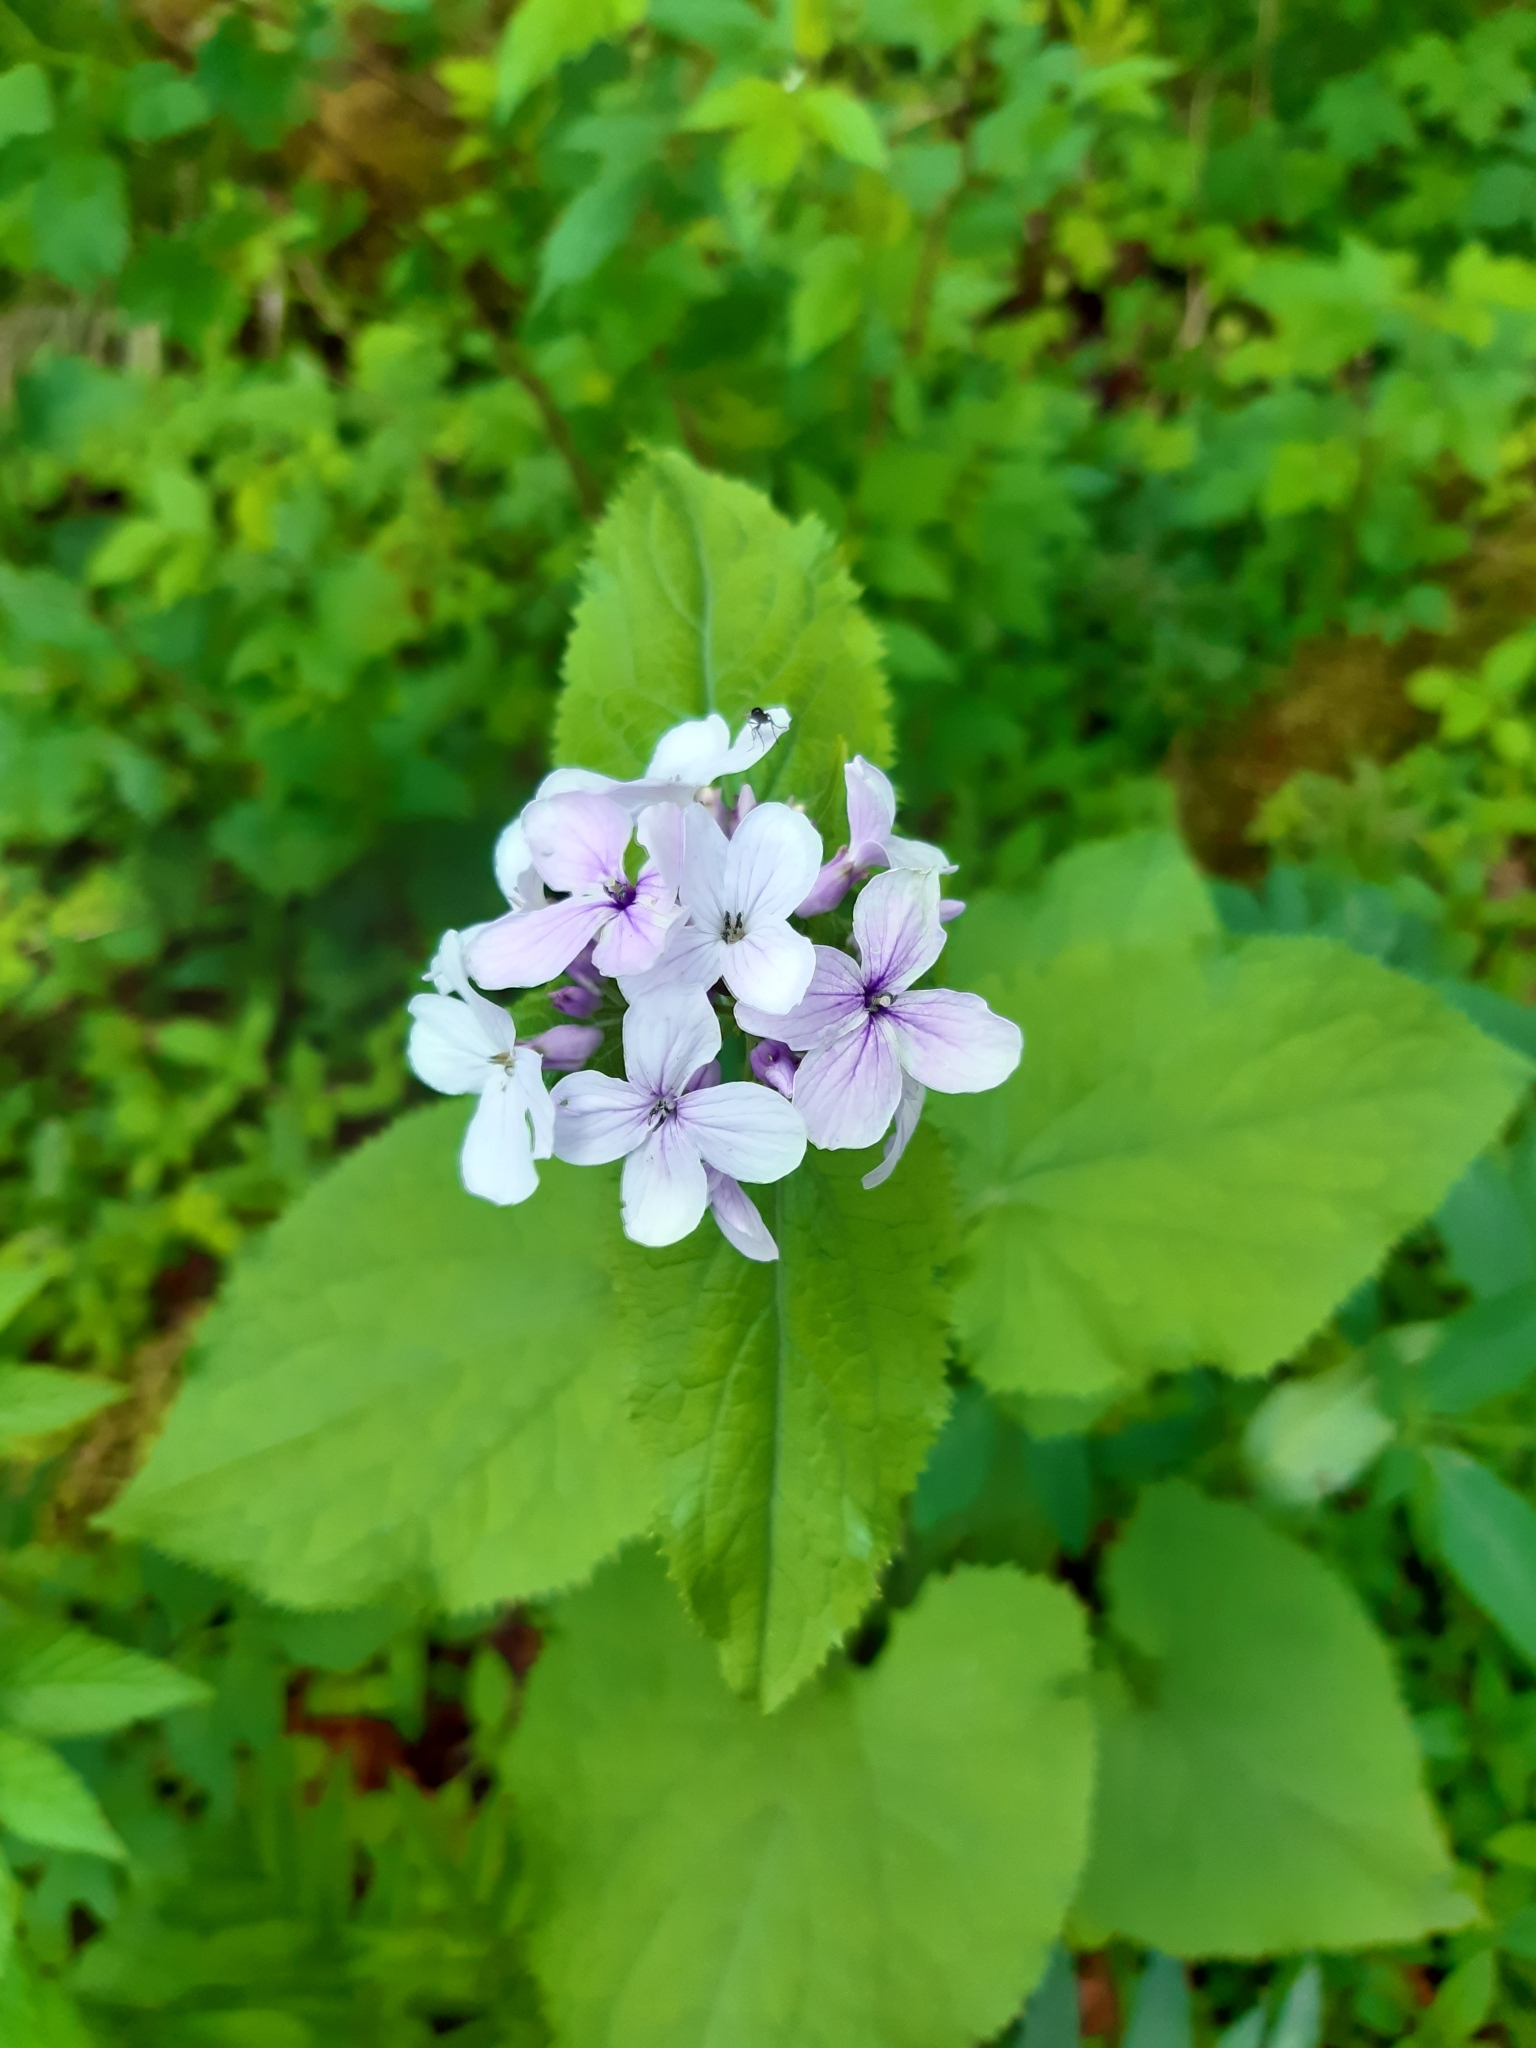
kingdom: Plantae
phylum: Tracheophyta
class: Magnoliopsida
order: Brassicales
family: Brassicaceae
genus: Lunaria
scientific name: Lunaria rediviva
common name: Perennial honesty
